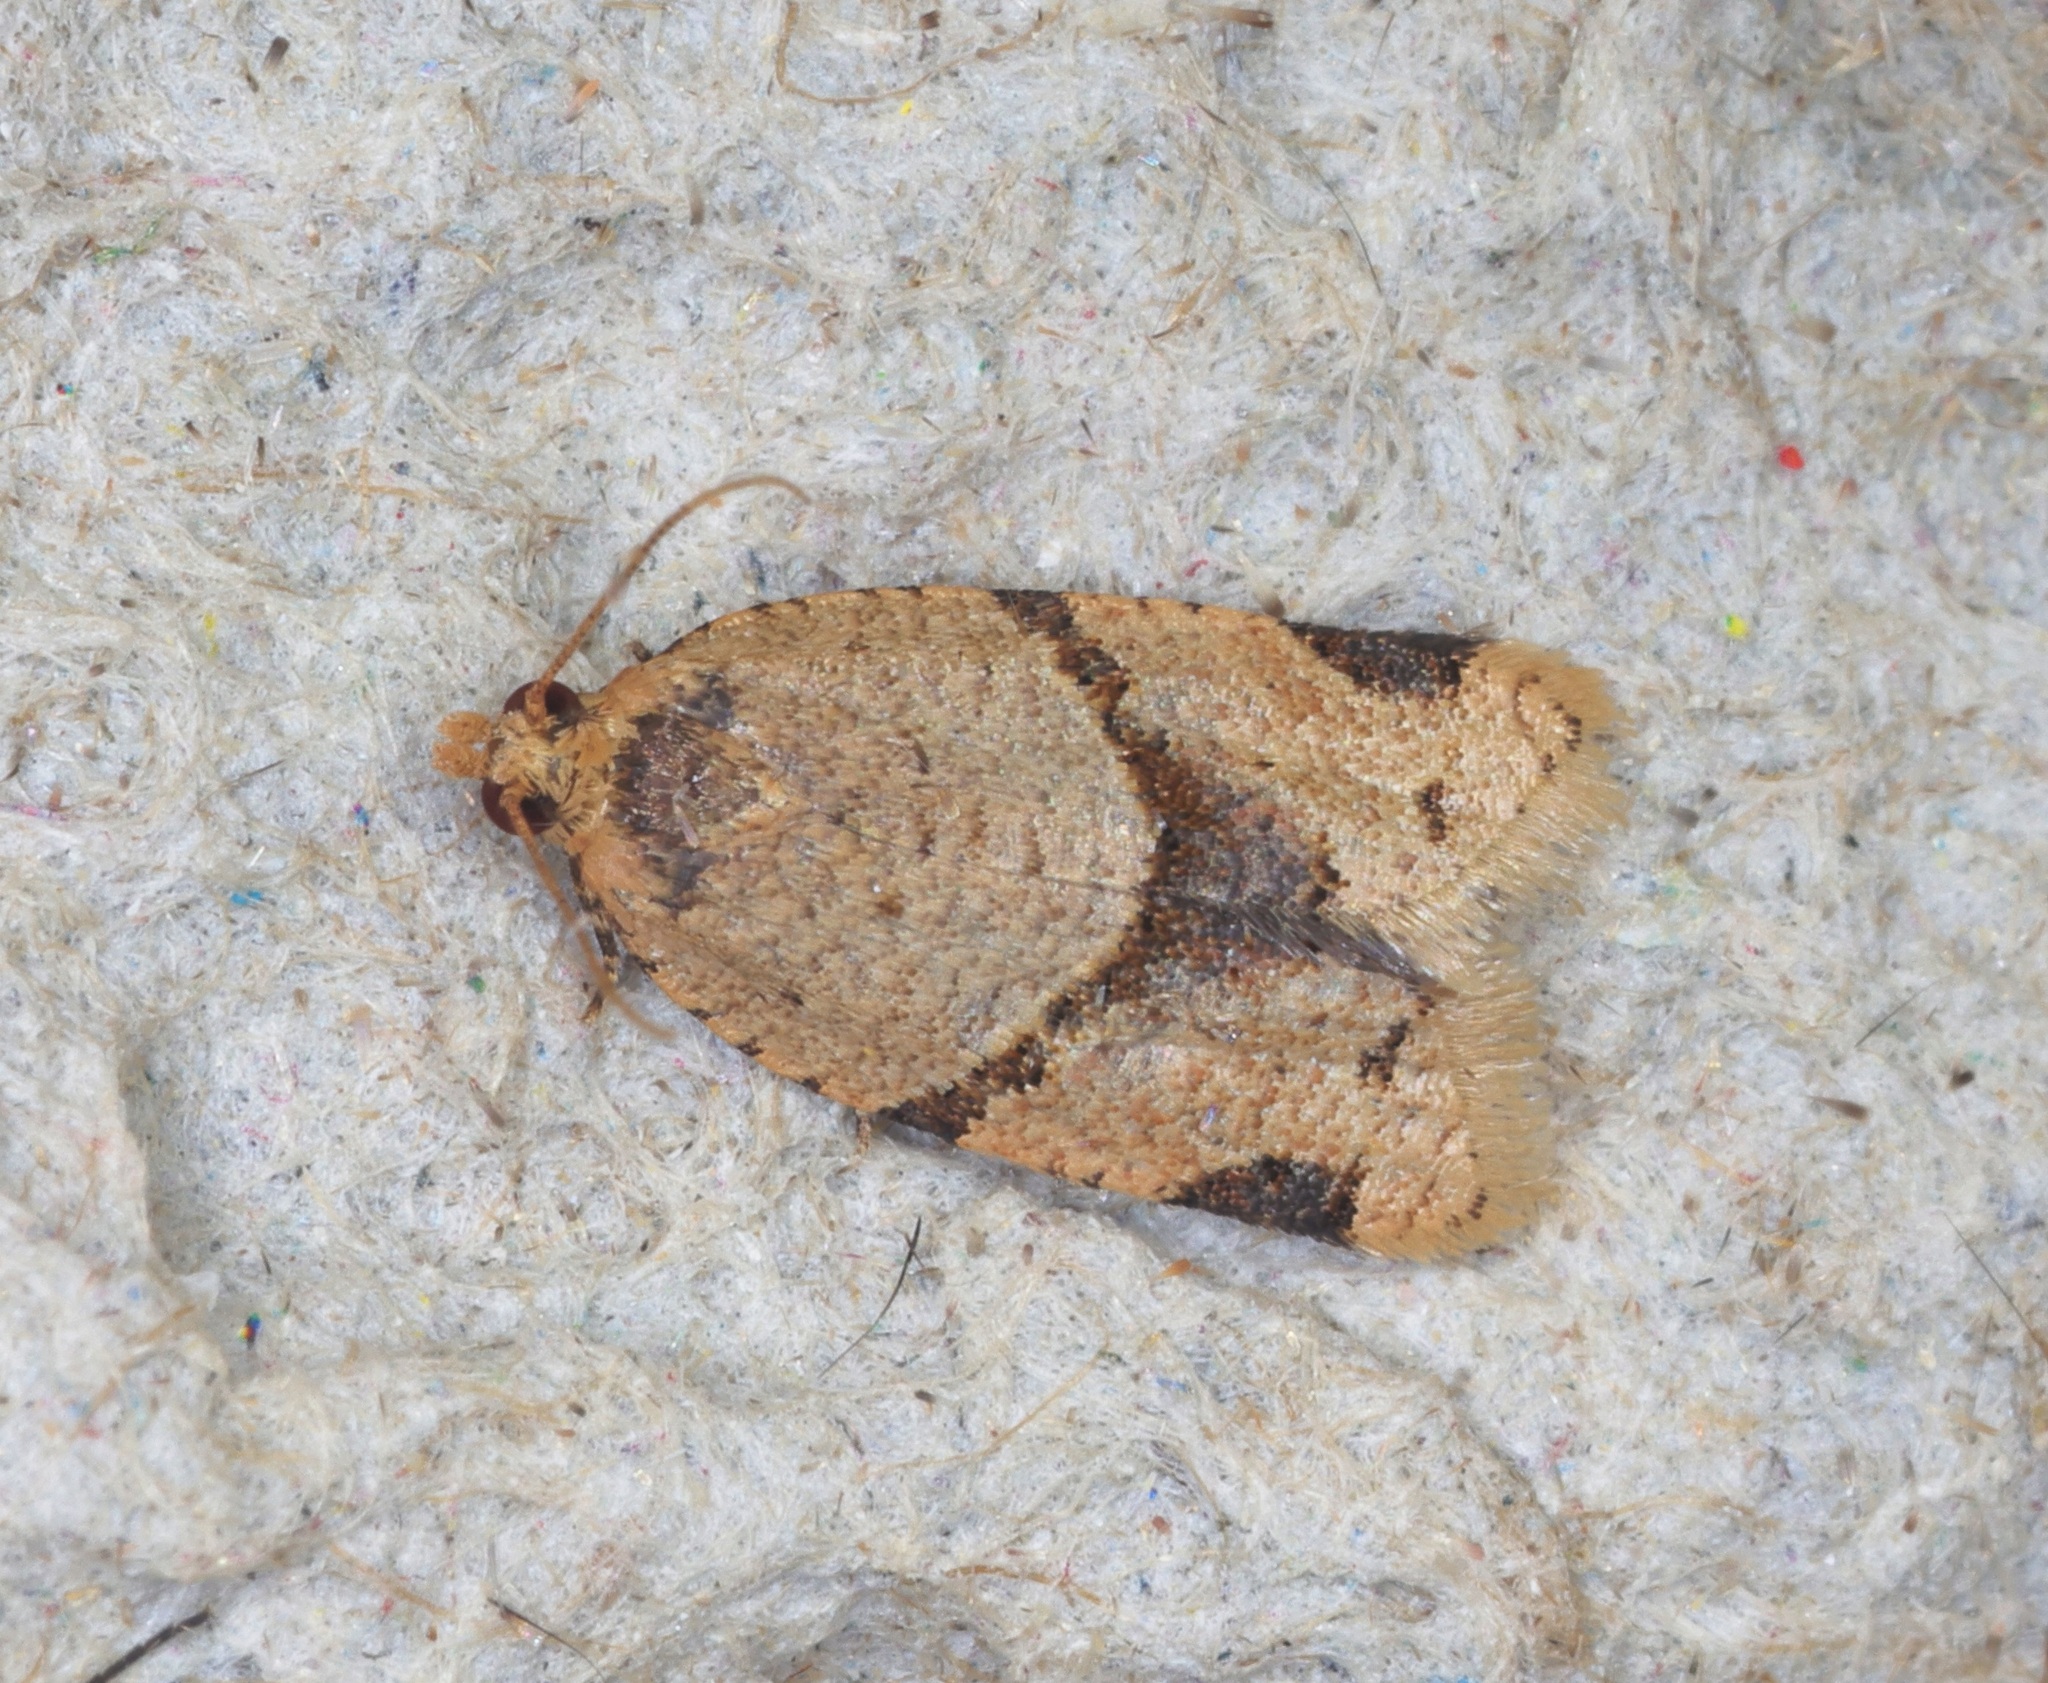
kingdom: Animalia
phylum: Arthropoda
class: Insecta
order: Lepidoptera
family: Tortricidae
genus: Diplocalyptis
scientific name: Diplocalyptis
